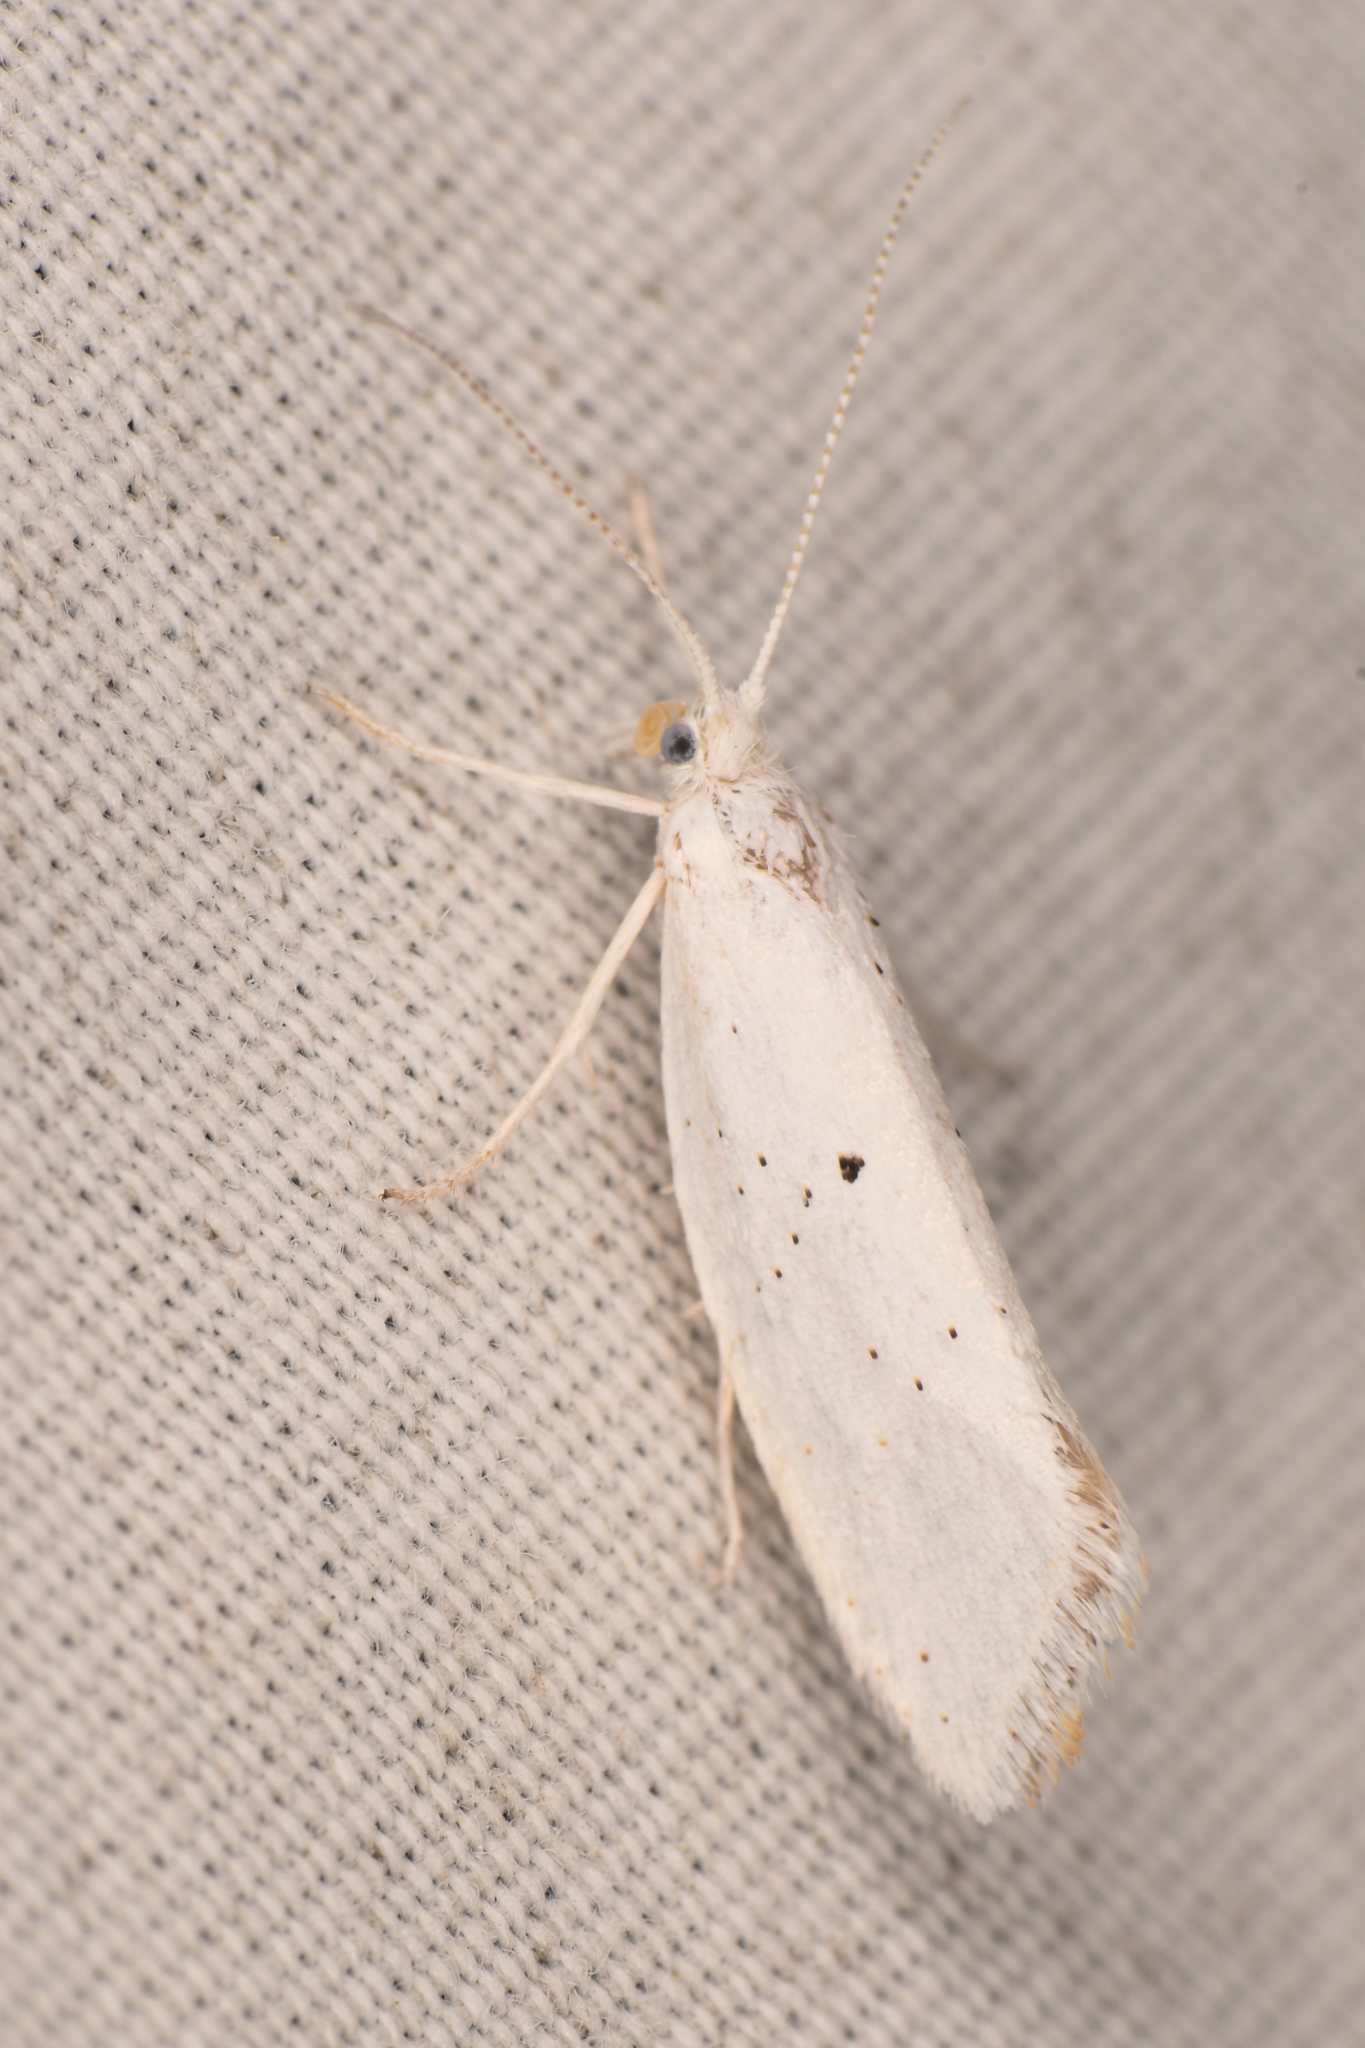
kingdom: Animalia
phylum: Arthropoda
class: Insecta
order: Lepidoptera
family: Ypsolophidae
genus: Euceratia
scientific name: Euceratia castella
